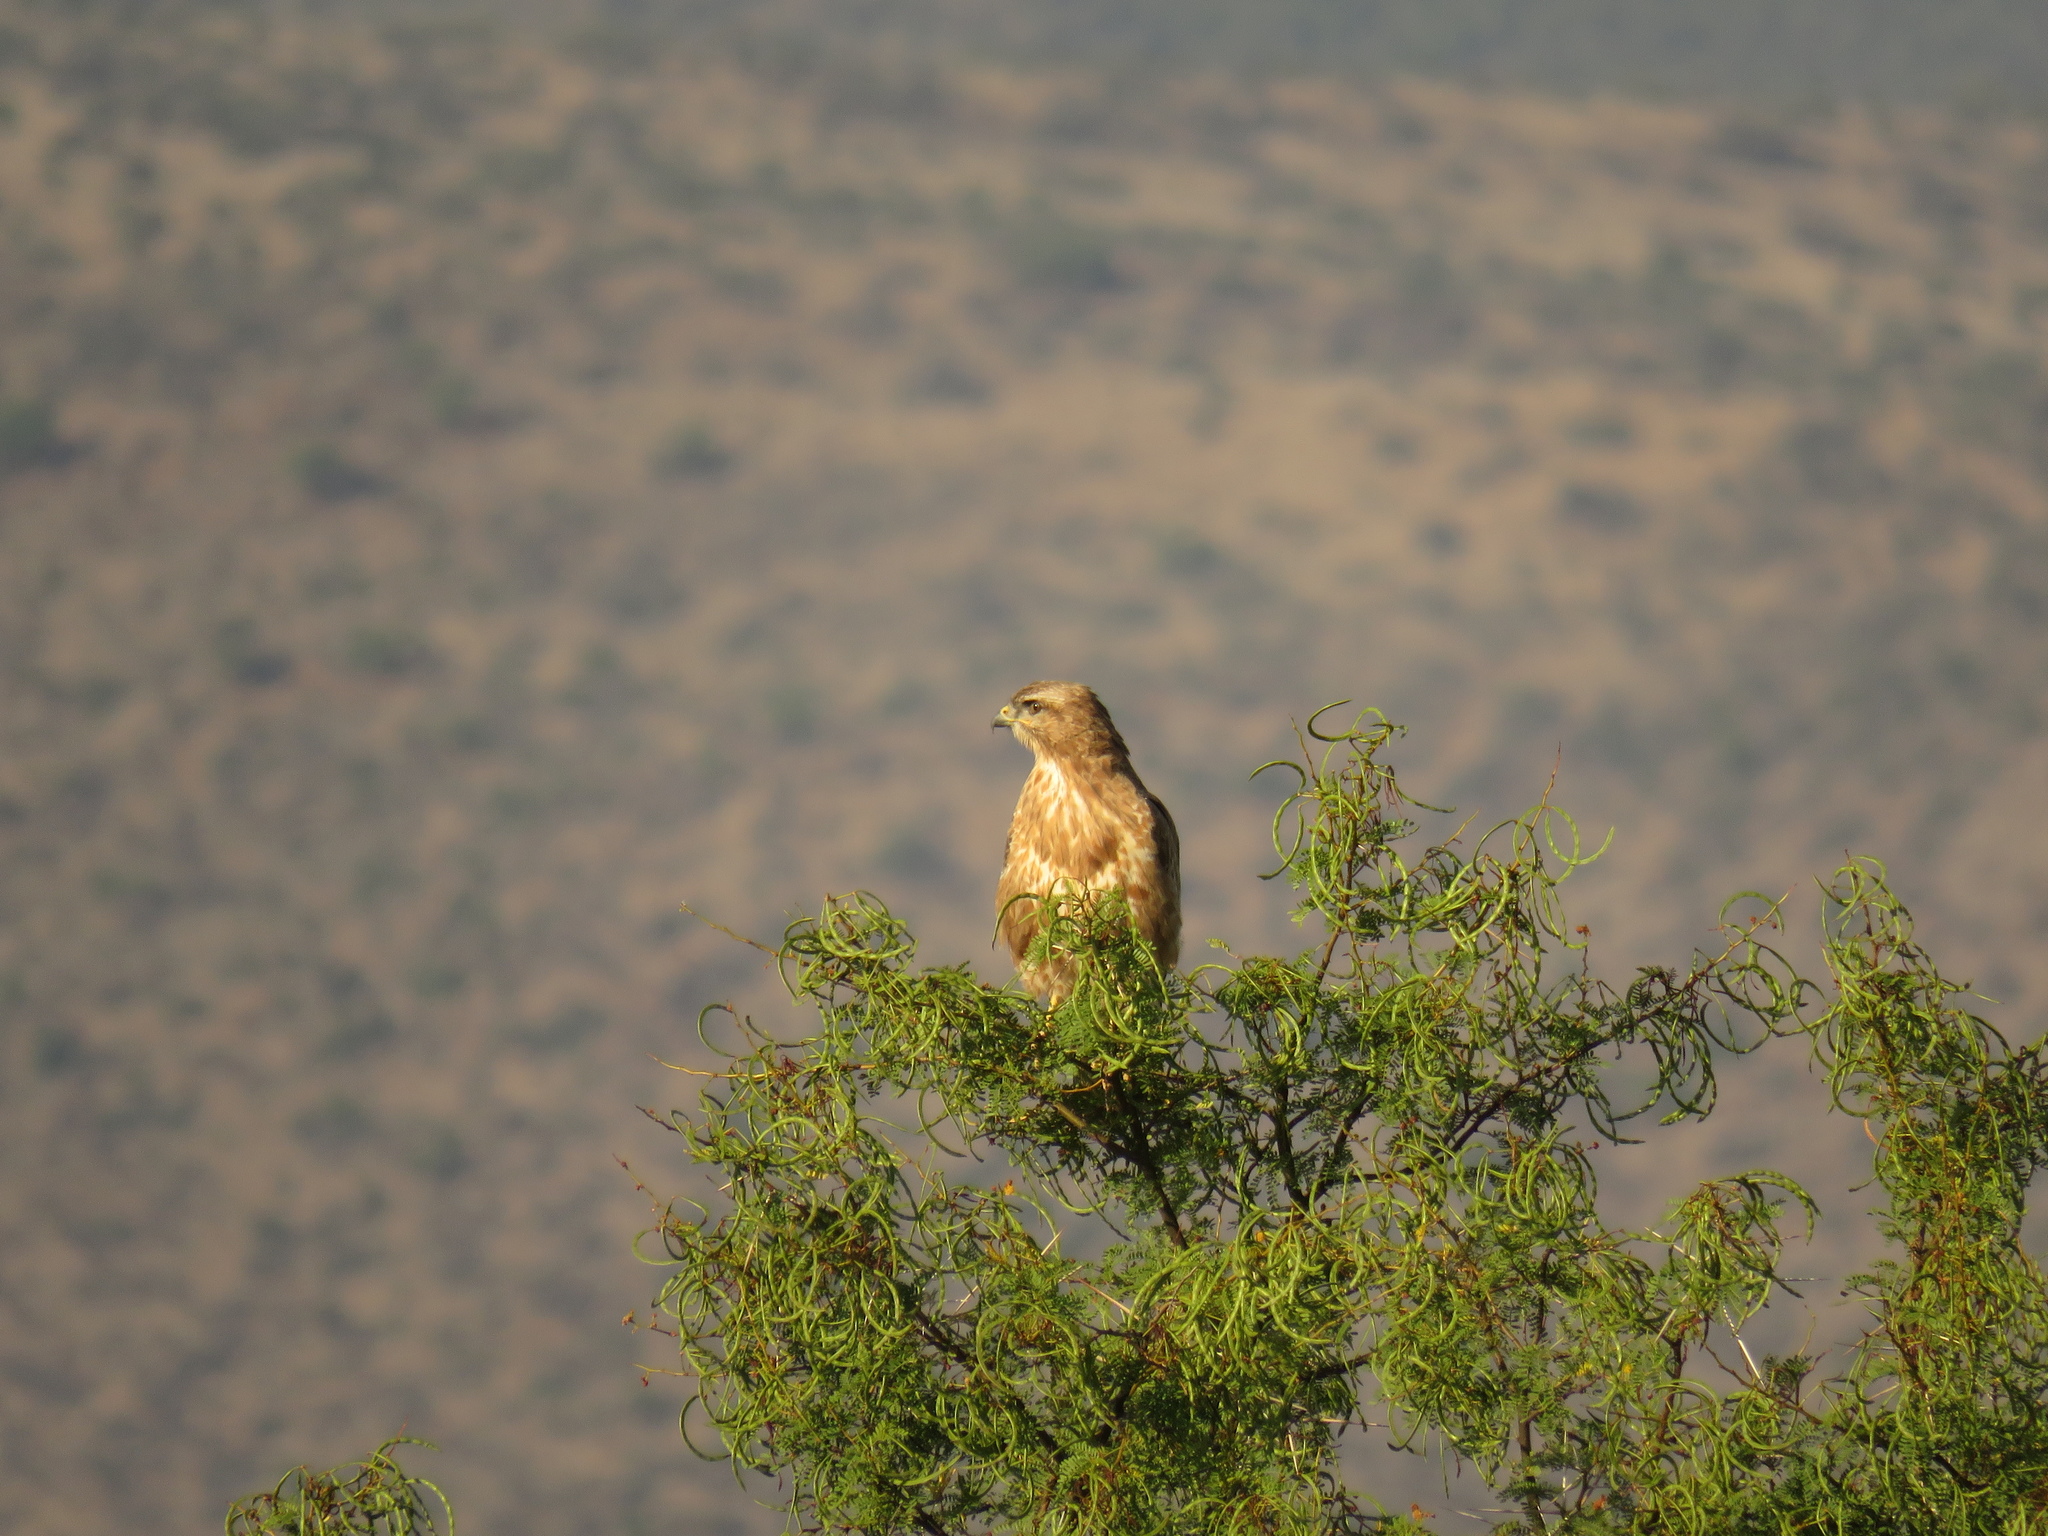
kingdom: Animalia
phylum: Chordata
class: Aves
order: Accipitriformes
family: Accipitridae
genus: Buteo
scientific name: Buteo buteo
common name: Common buzzard
